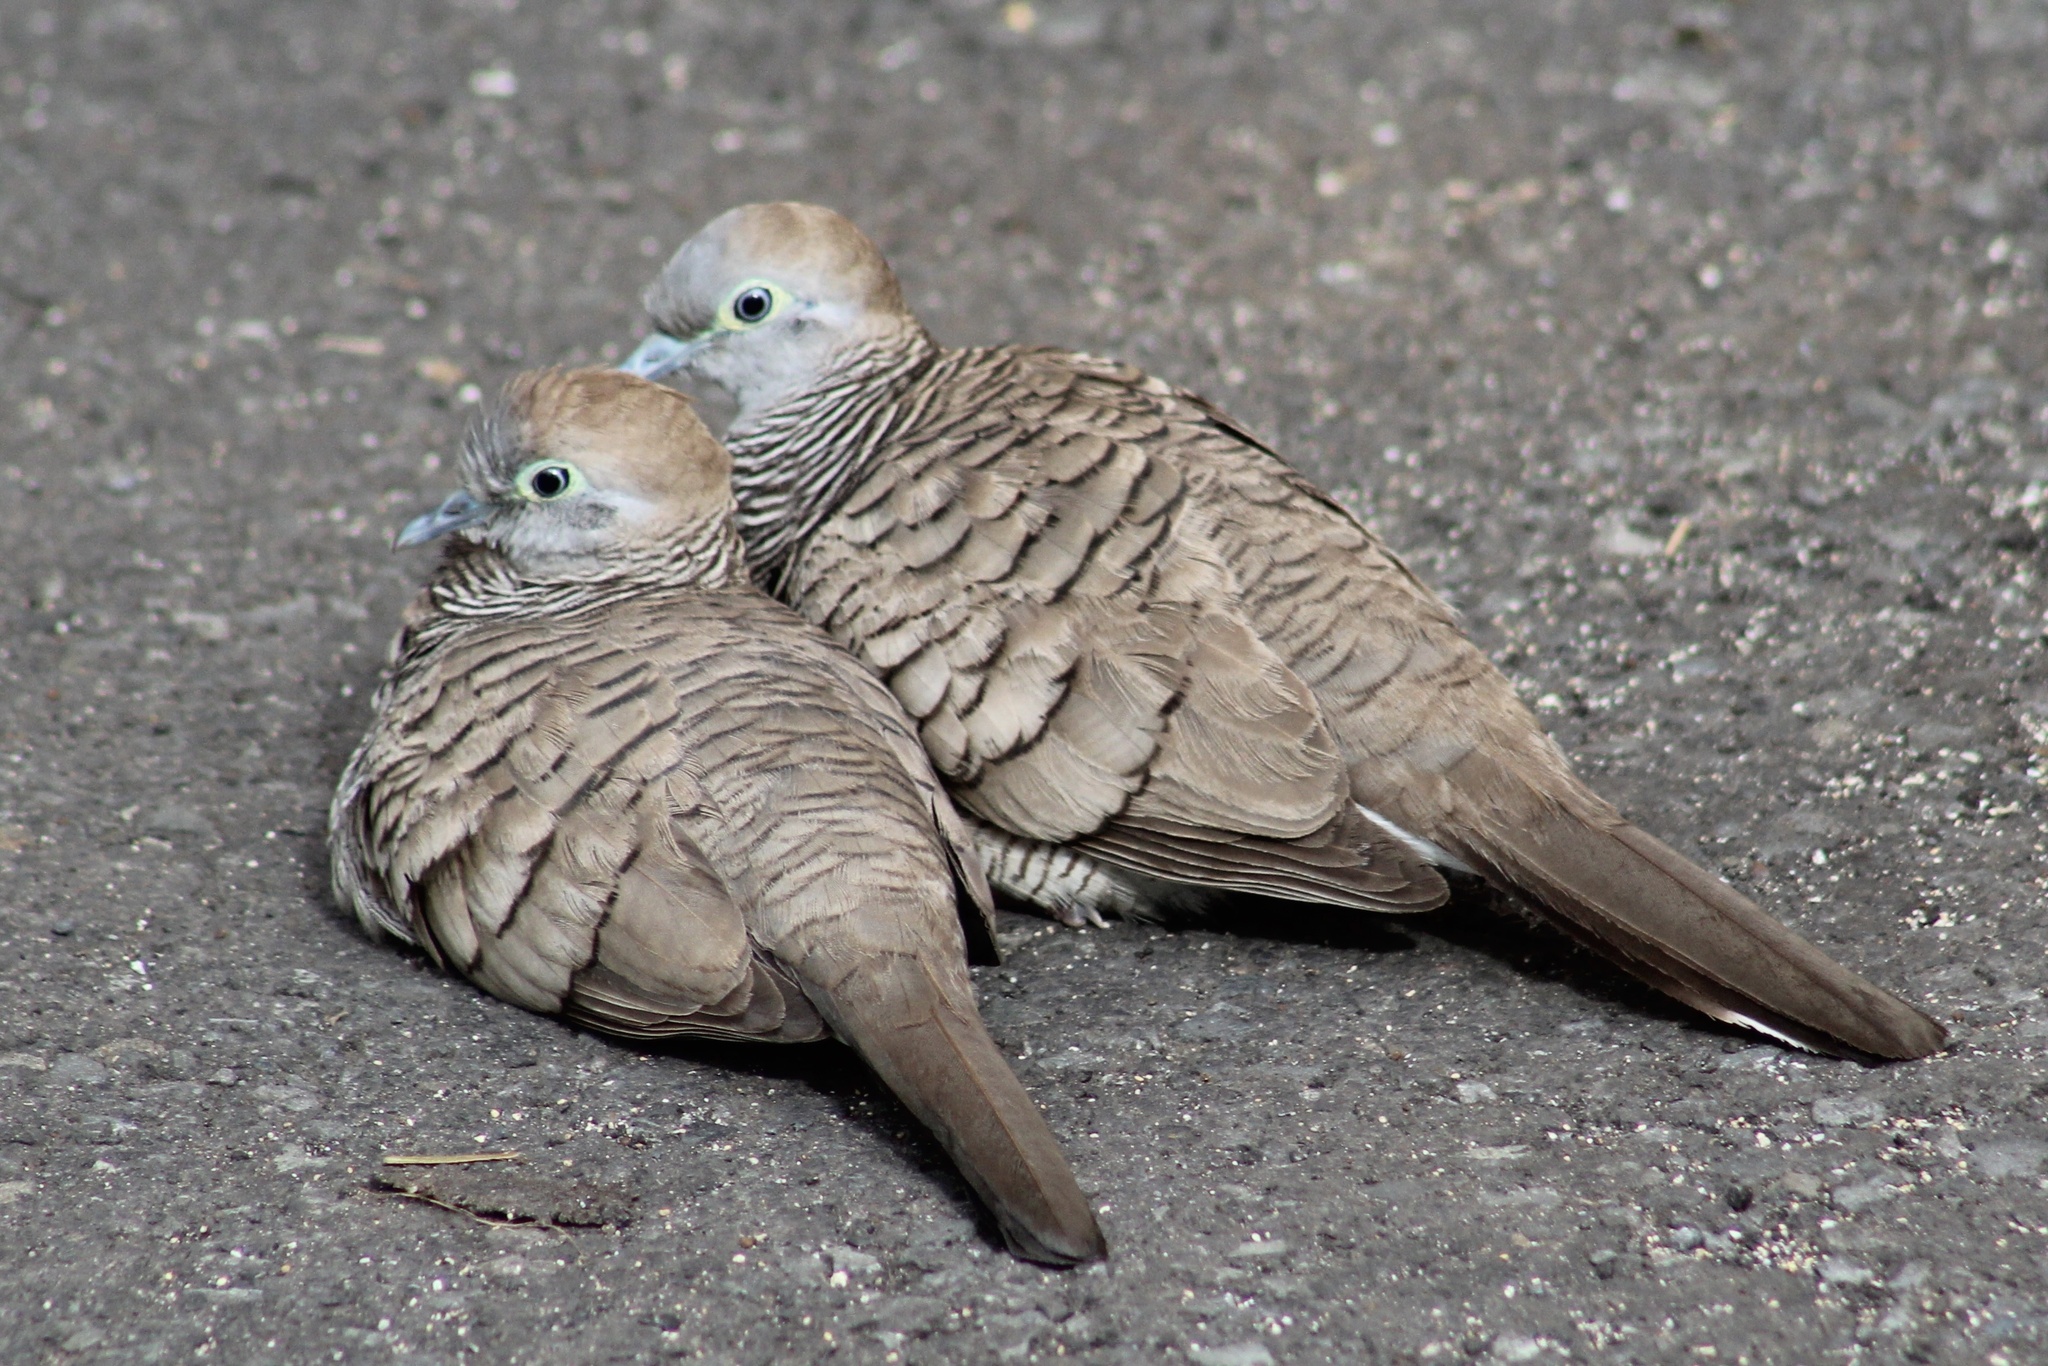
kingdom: Animalia
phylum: Chordata
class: Aves
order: Columbiformes
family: Columbidae
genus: Geopelia
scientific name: Geopelia striata
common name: Zebra dove
